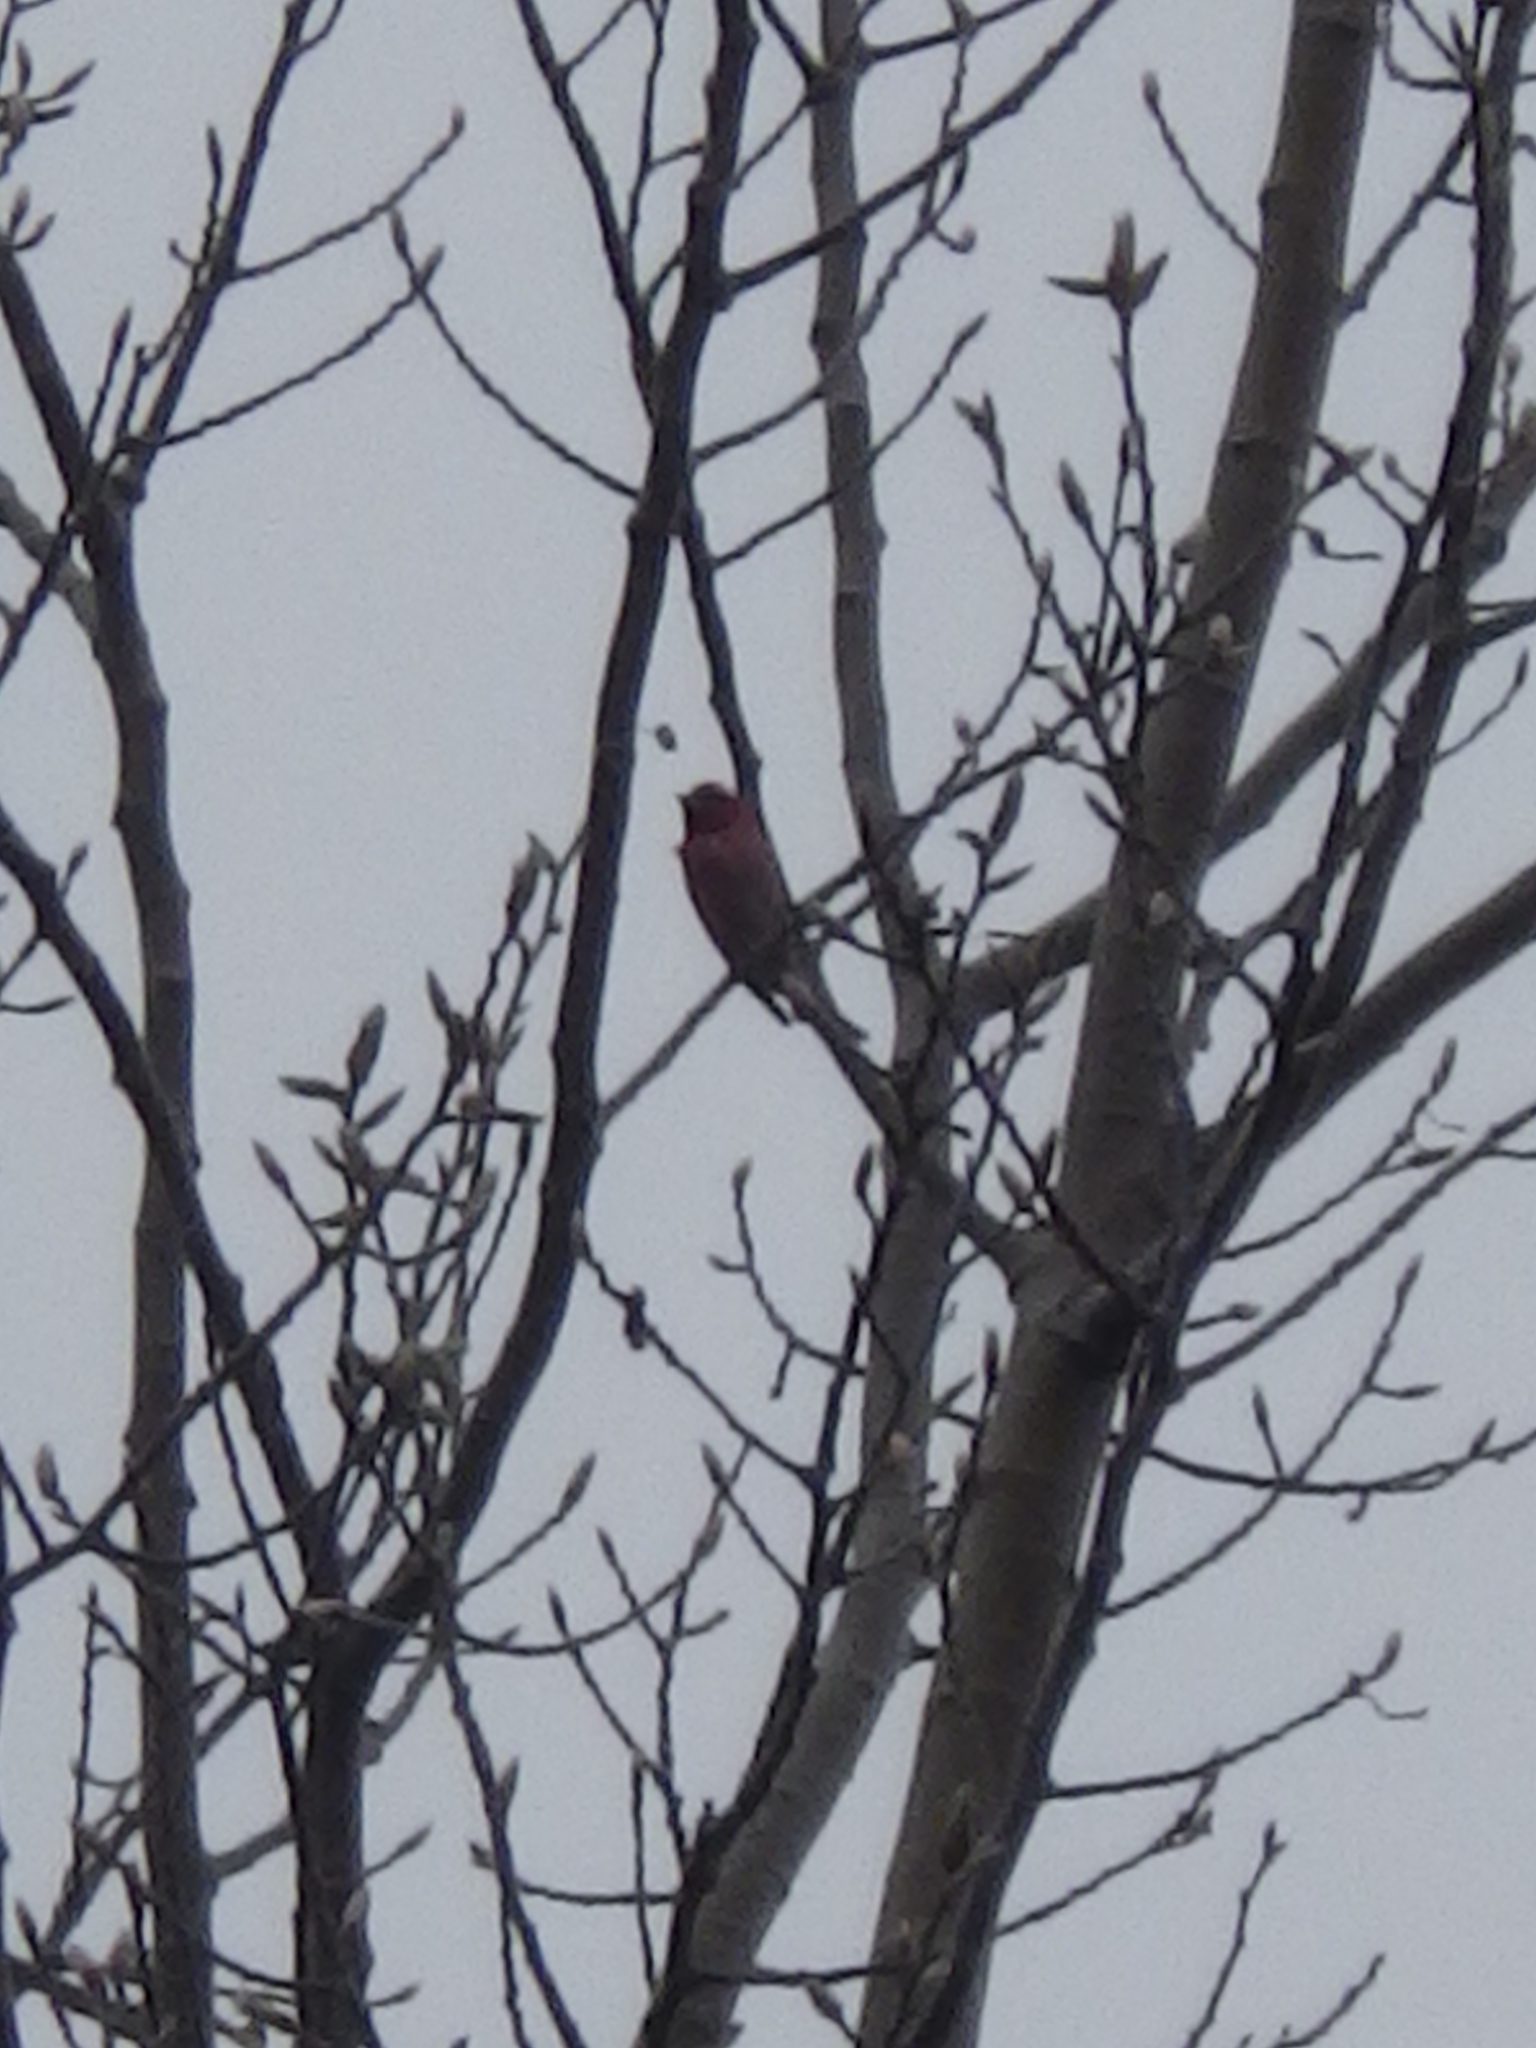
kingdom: Animalia
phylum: Chordata
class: Aves
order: Passeriformes
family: Fringillidae
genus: Haemorhous
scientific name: Haemorhous purpureus
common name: Purple finch
